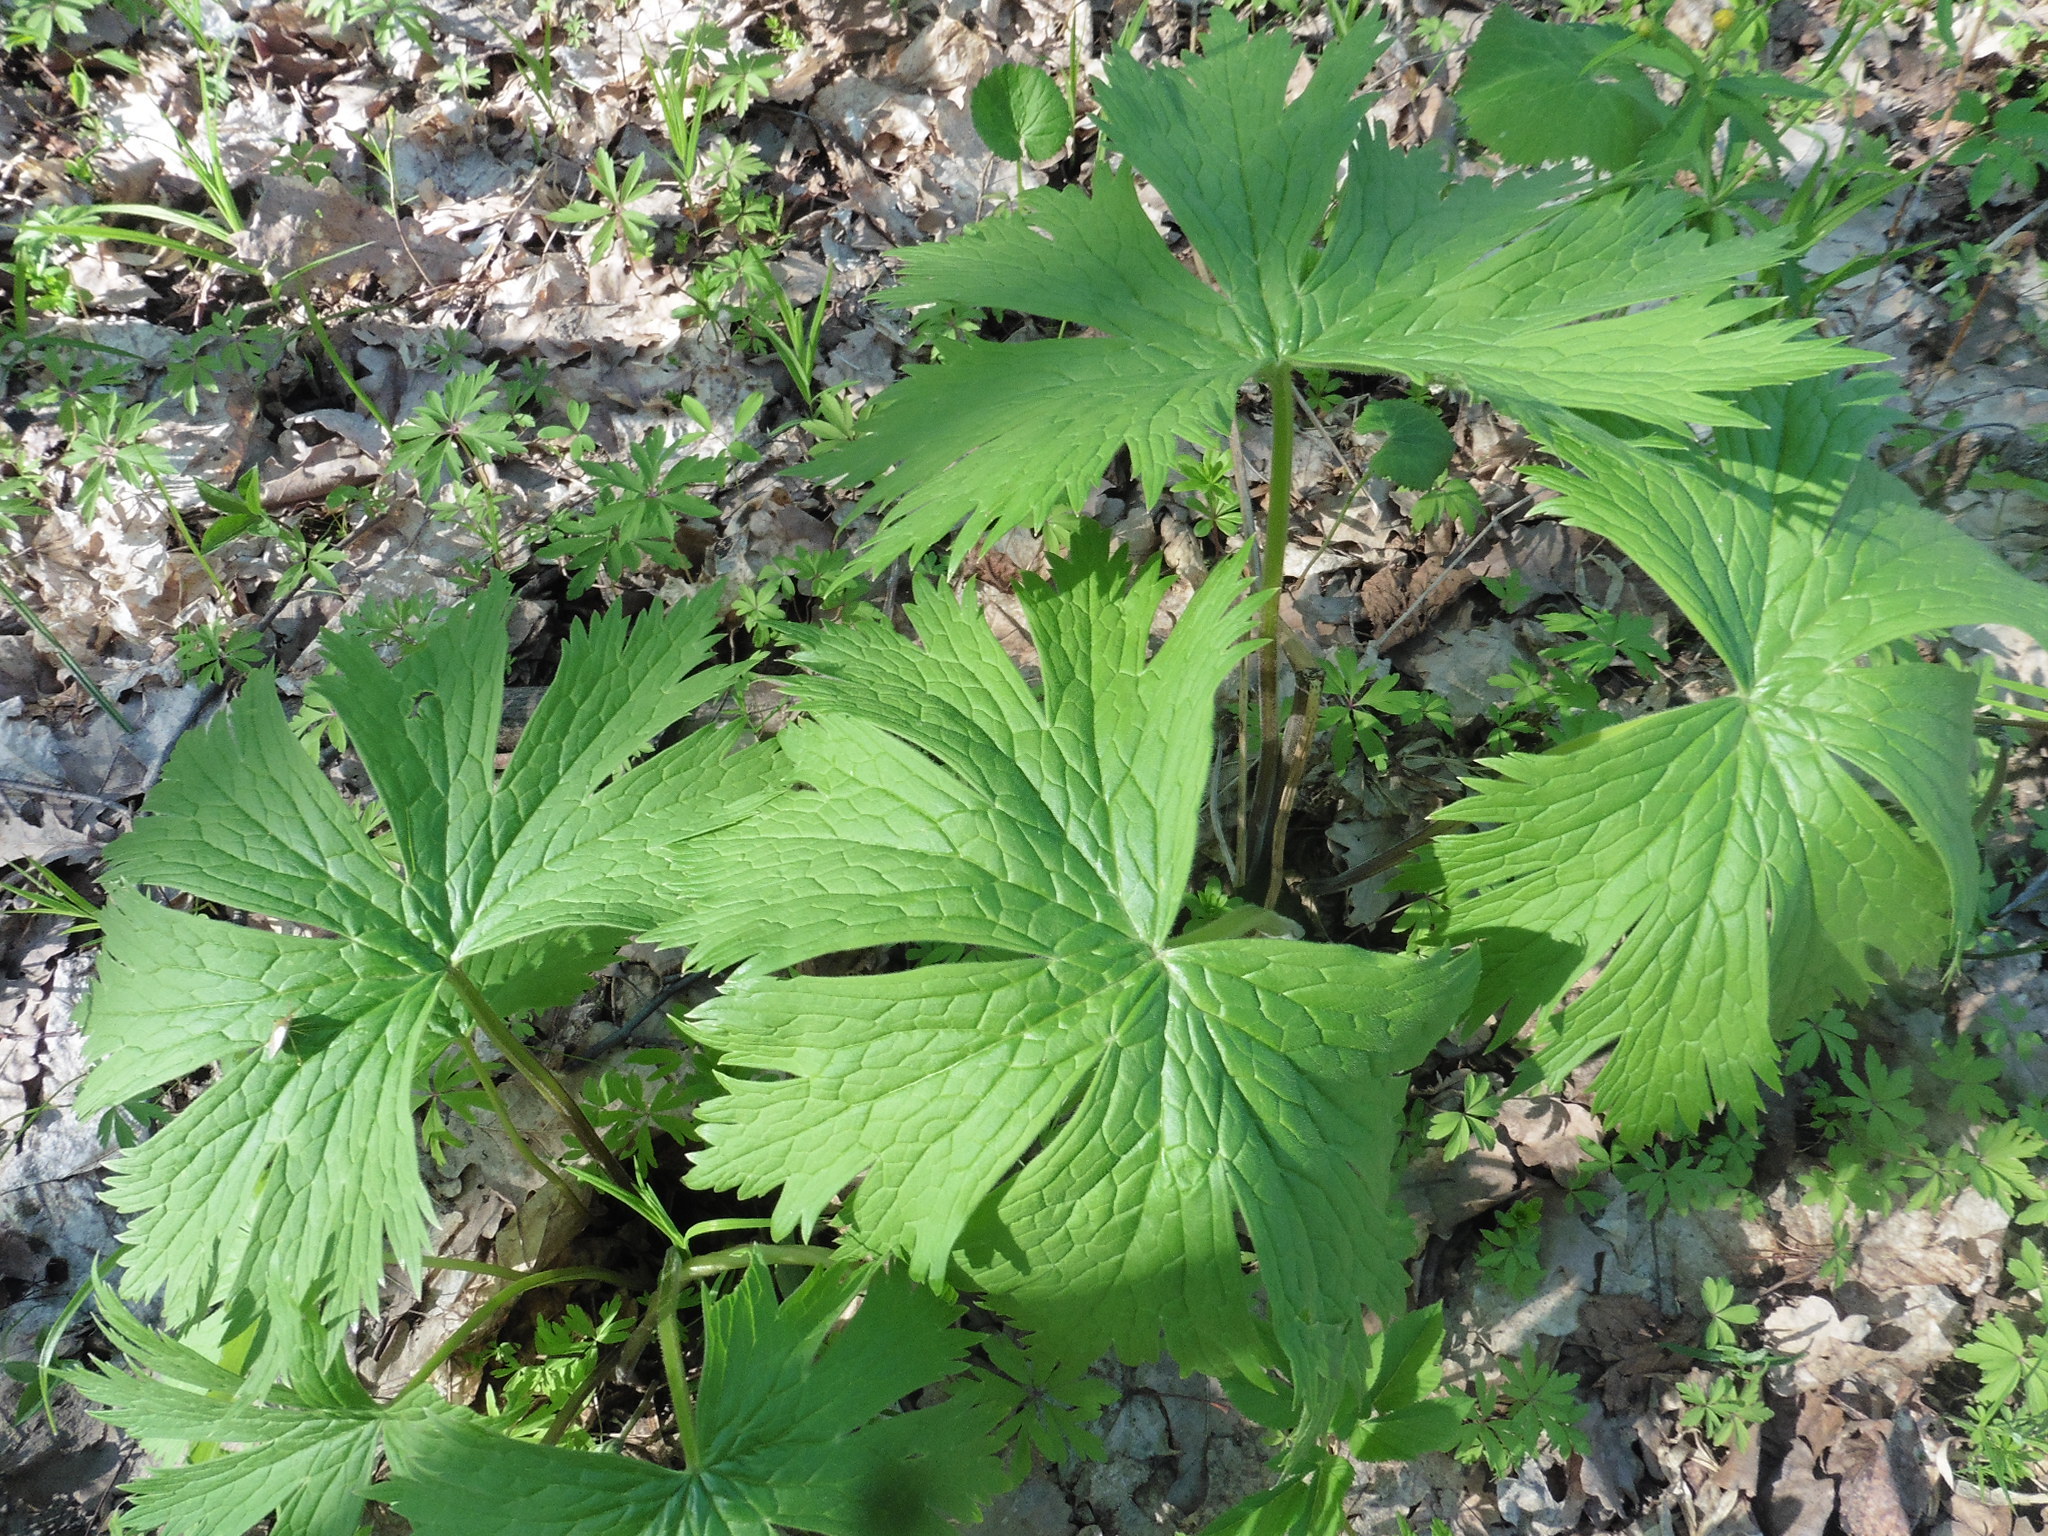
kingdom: Plantae
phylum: Tracheophyta
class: Magnoliopsida
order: Ranunculales
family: Ranunculaceae
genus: Aconitum
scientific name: Aconitum septentrionale
